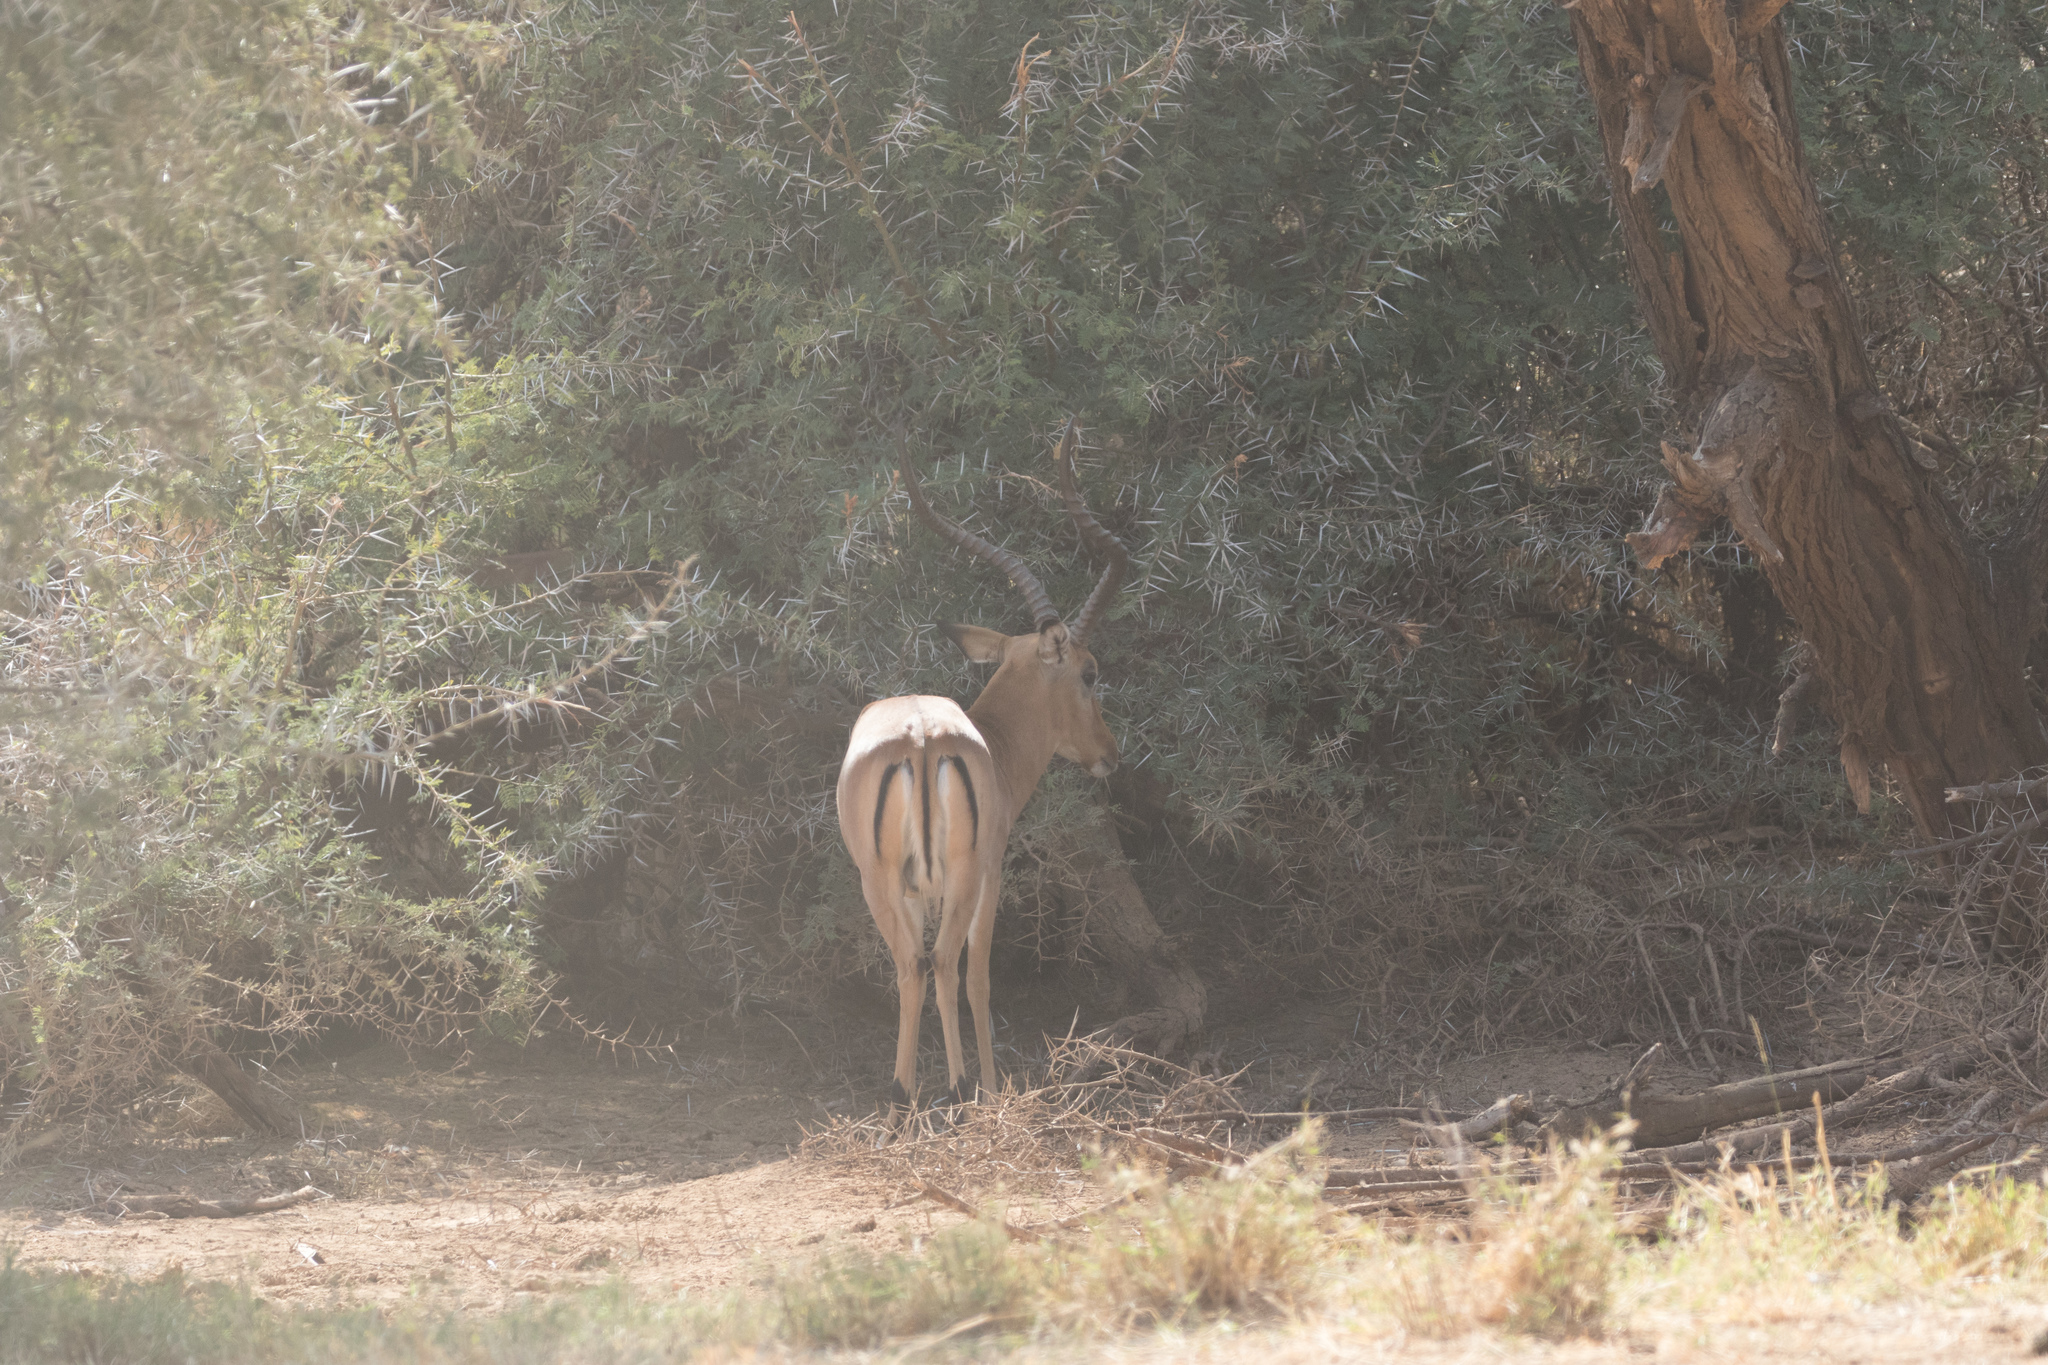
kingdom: Animalia
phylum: Chordata
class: Mammalia
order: Artiodactyla
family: Bovidae
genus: Aepyceros
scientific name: Aepyceros melampus
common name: Impala
